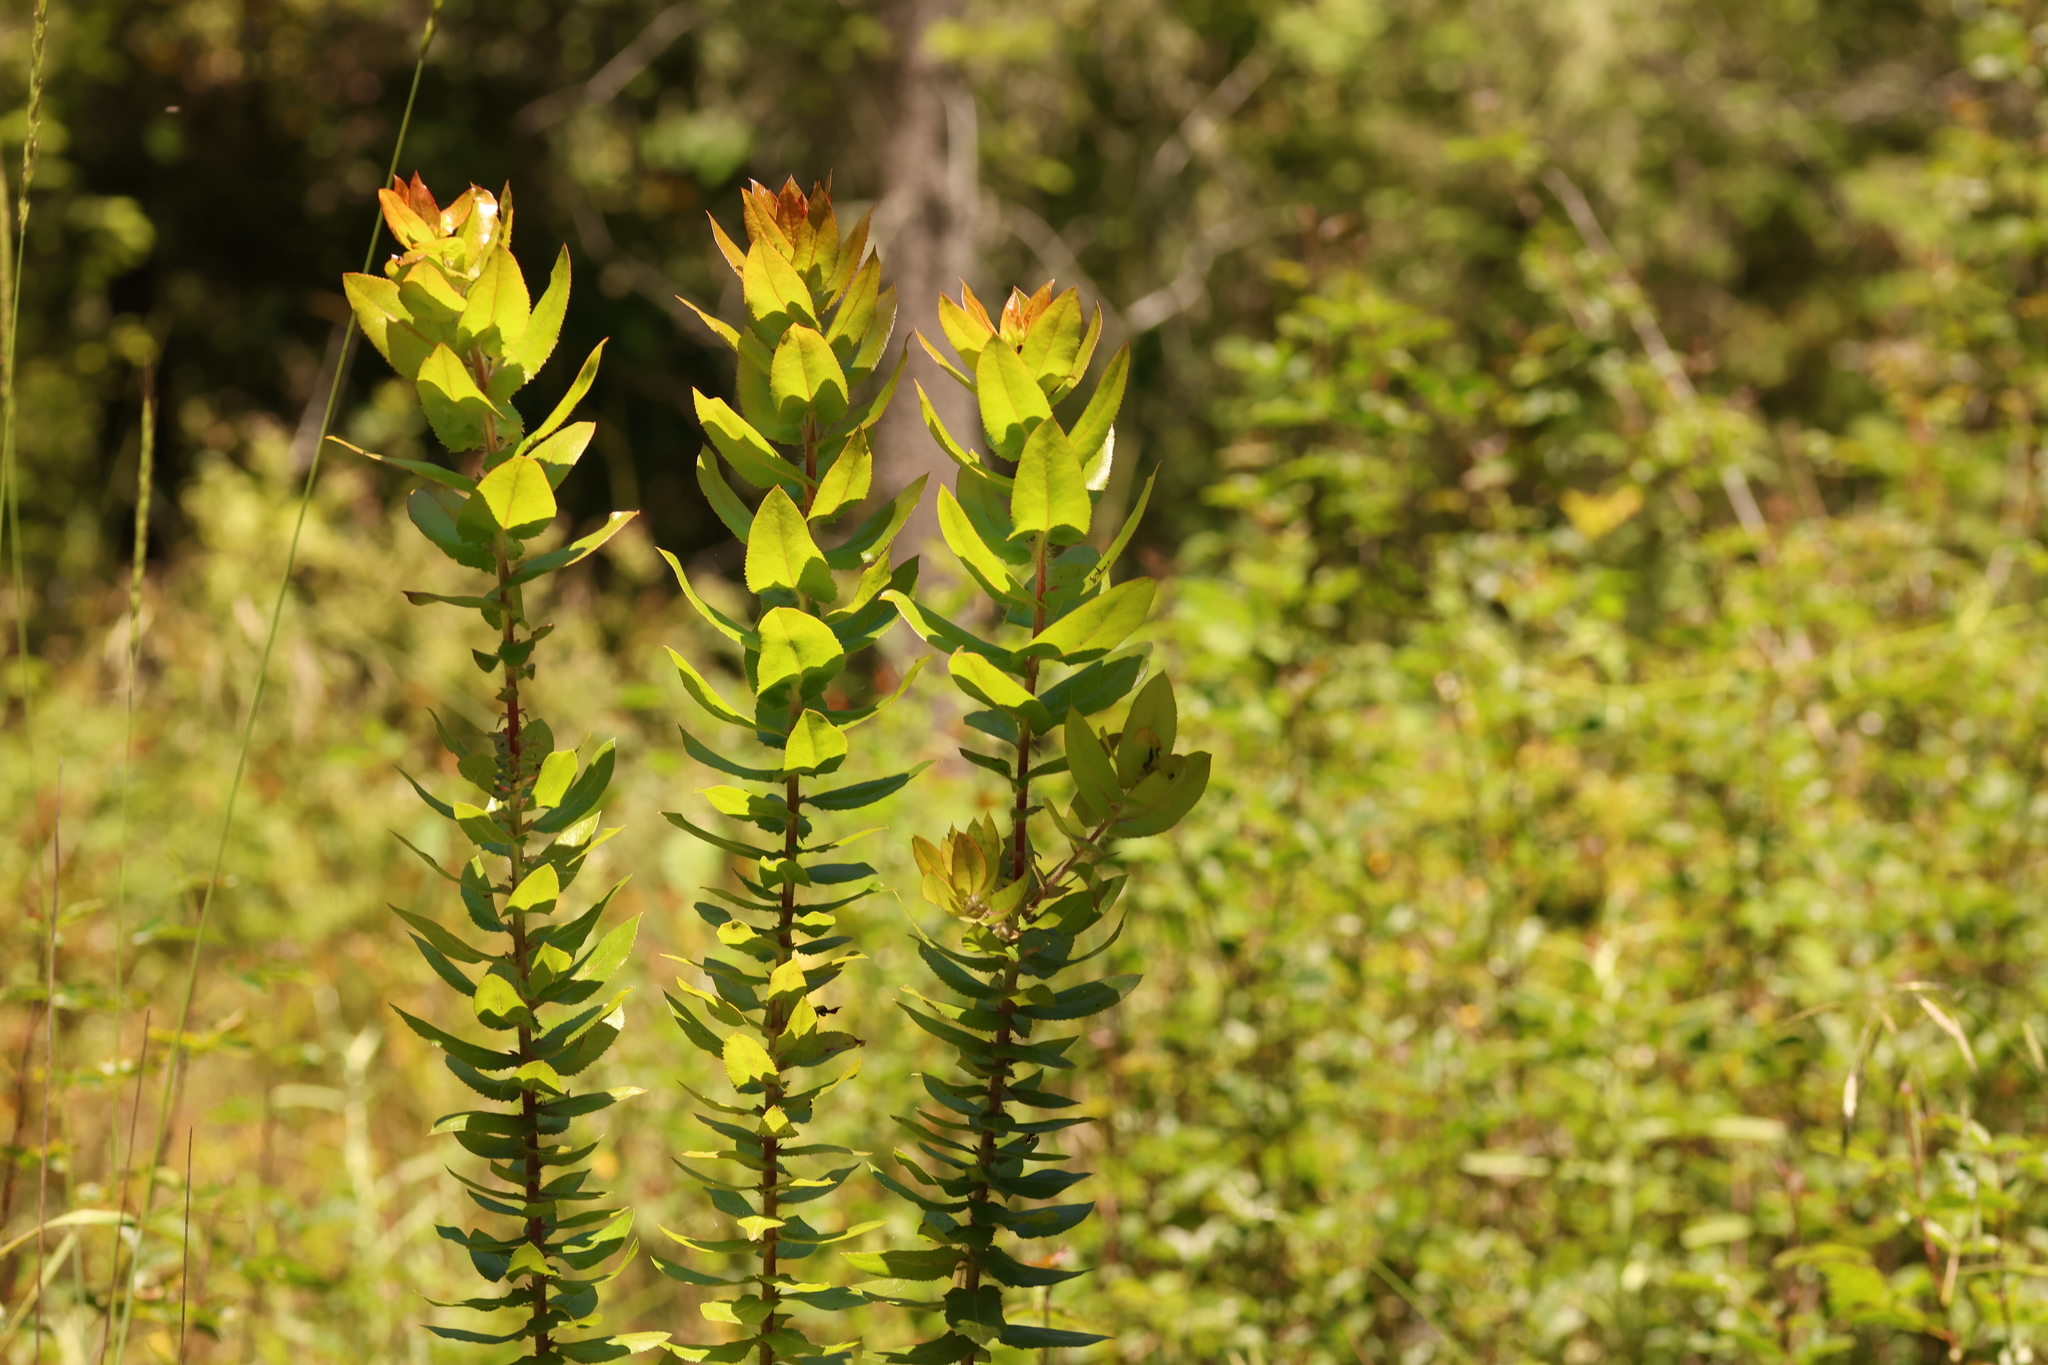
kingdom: Plantae
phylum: Tracheophyta
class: Magnoliopsida
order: Ericales
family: Ericaceae
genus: Arctostaphylos
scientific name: Arctostaphylos andersonii
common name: Santa cruz manzanita
